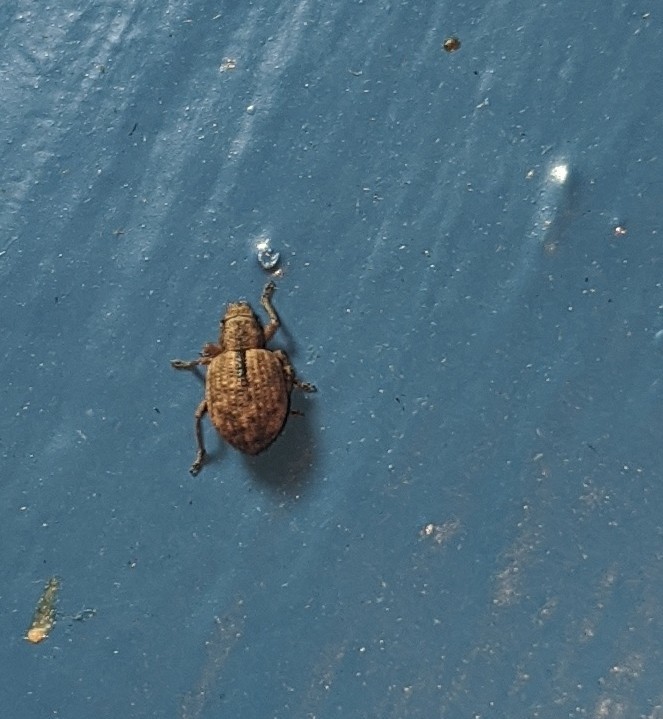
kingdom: Animalia
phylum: Arthropoda
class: Insecta
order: Coleoptera
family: Curculionidae
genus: Strophosoma
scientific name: Strophosoma melanogrammum
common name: Weevil
